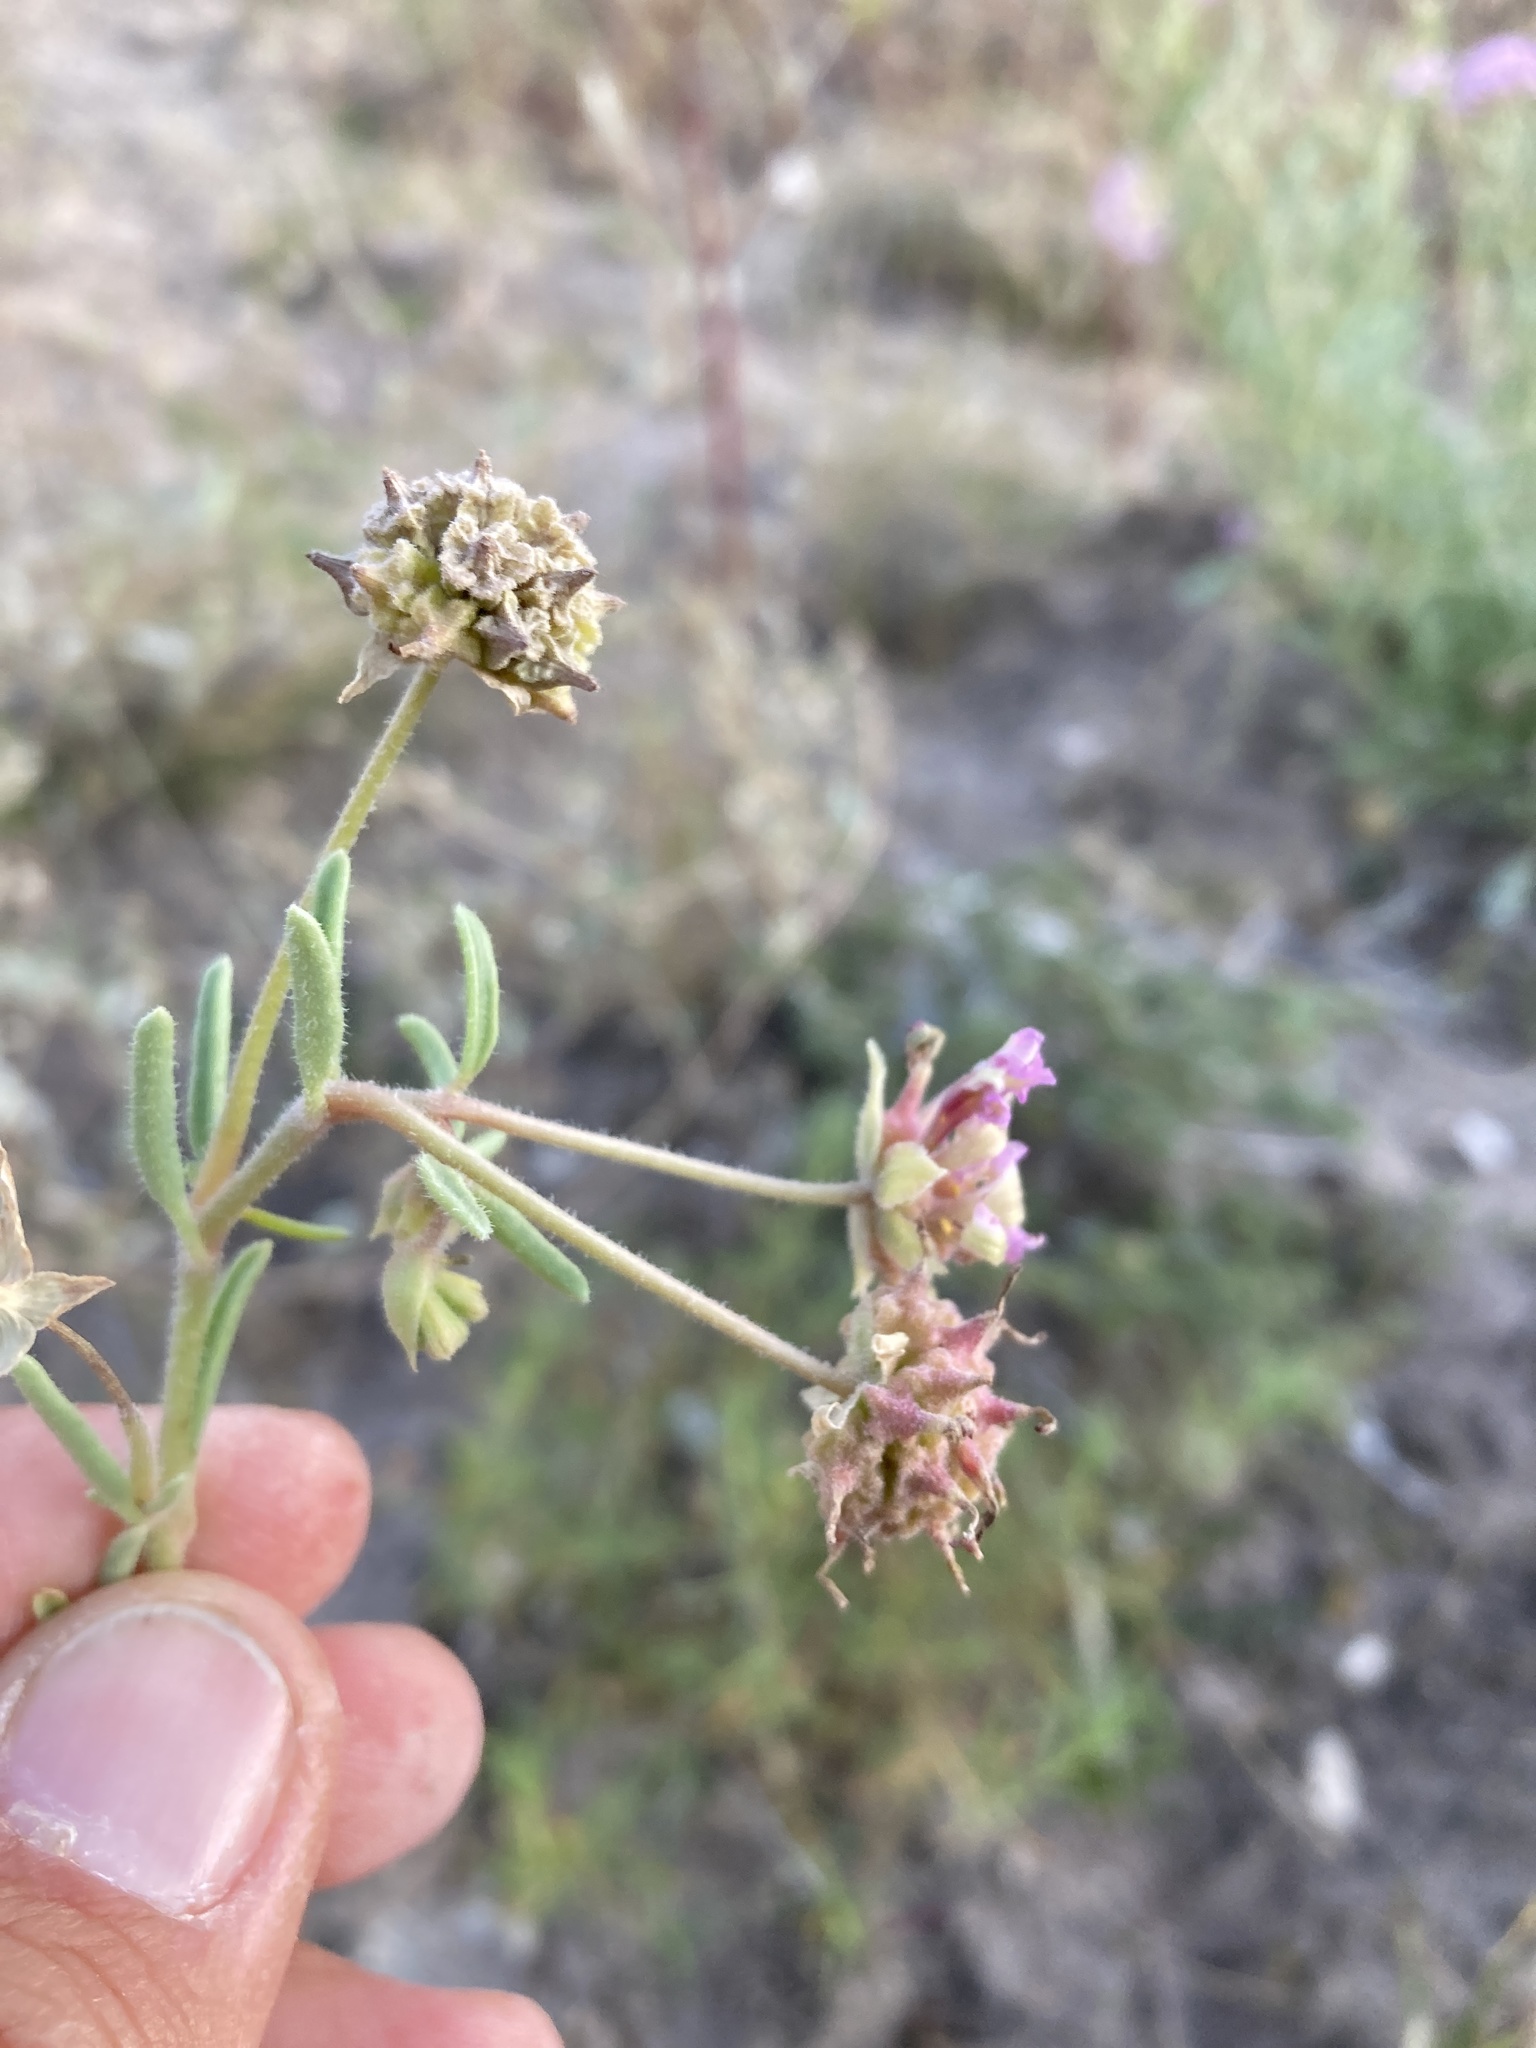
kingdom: Plantae
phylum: Tracheophyta
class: Magnoliopsida
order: Caryophyllales
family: Nyctaginaceae
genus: Abronia
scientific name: Abronia carletonii
